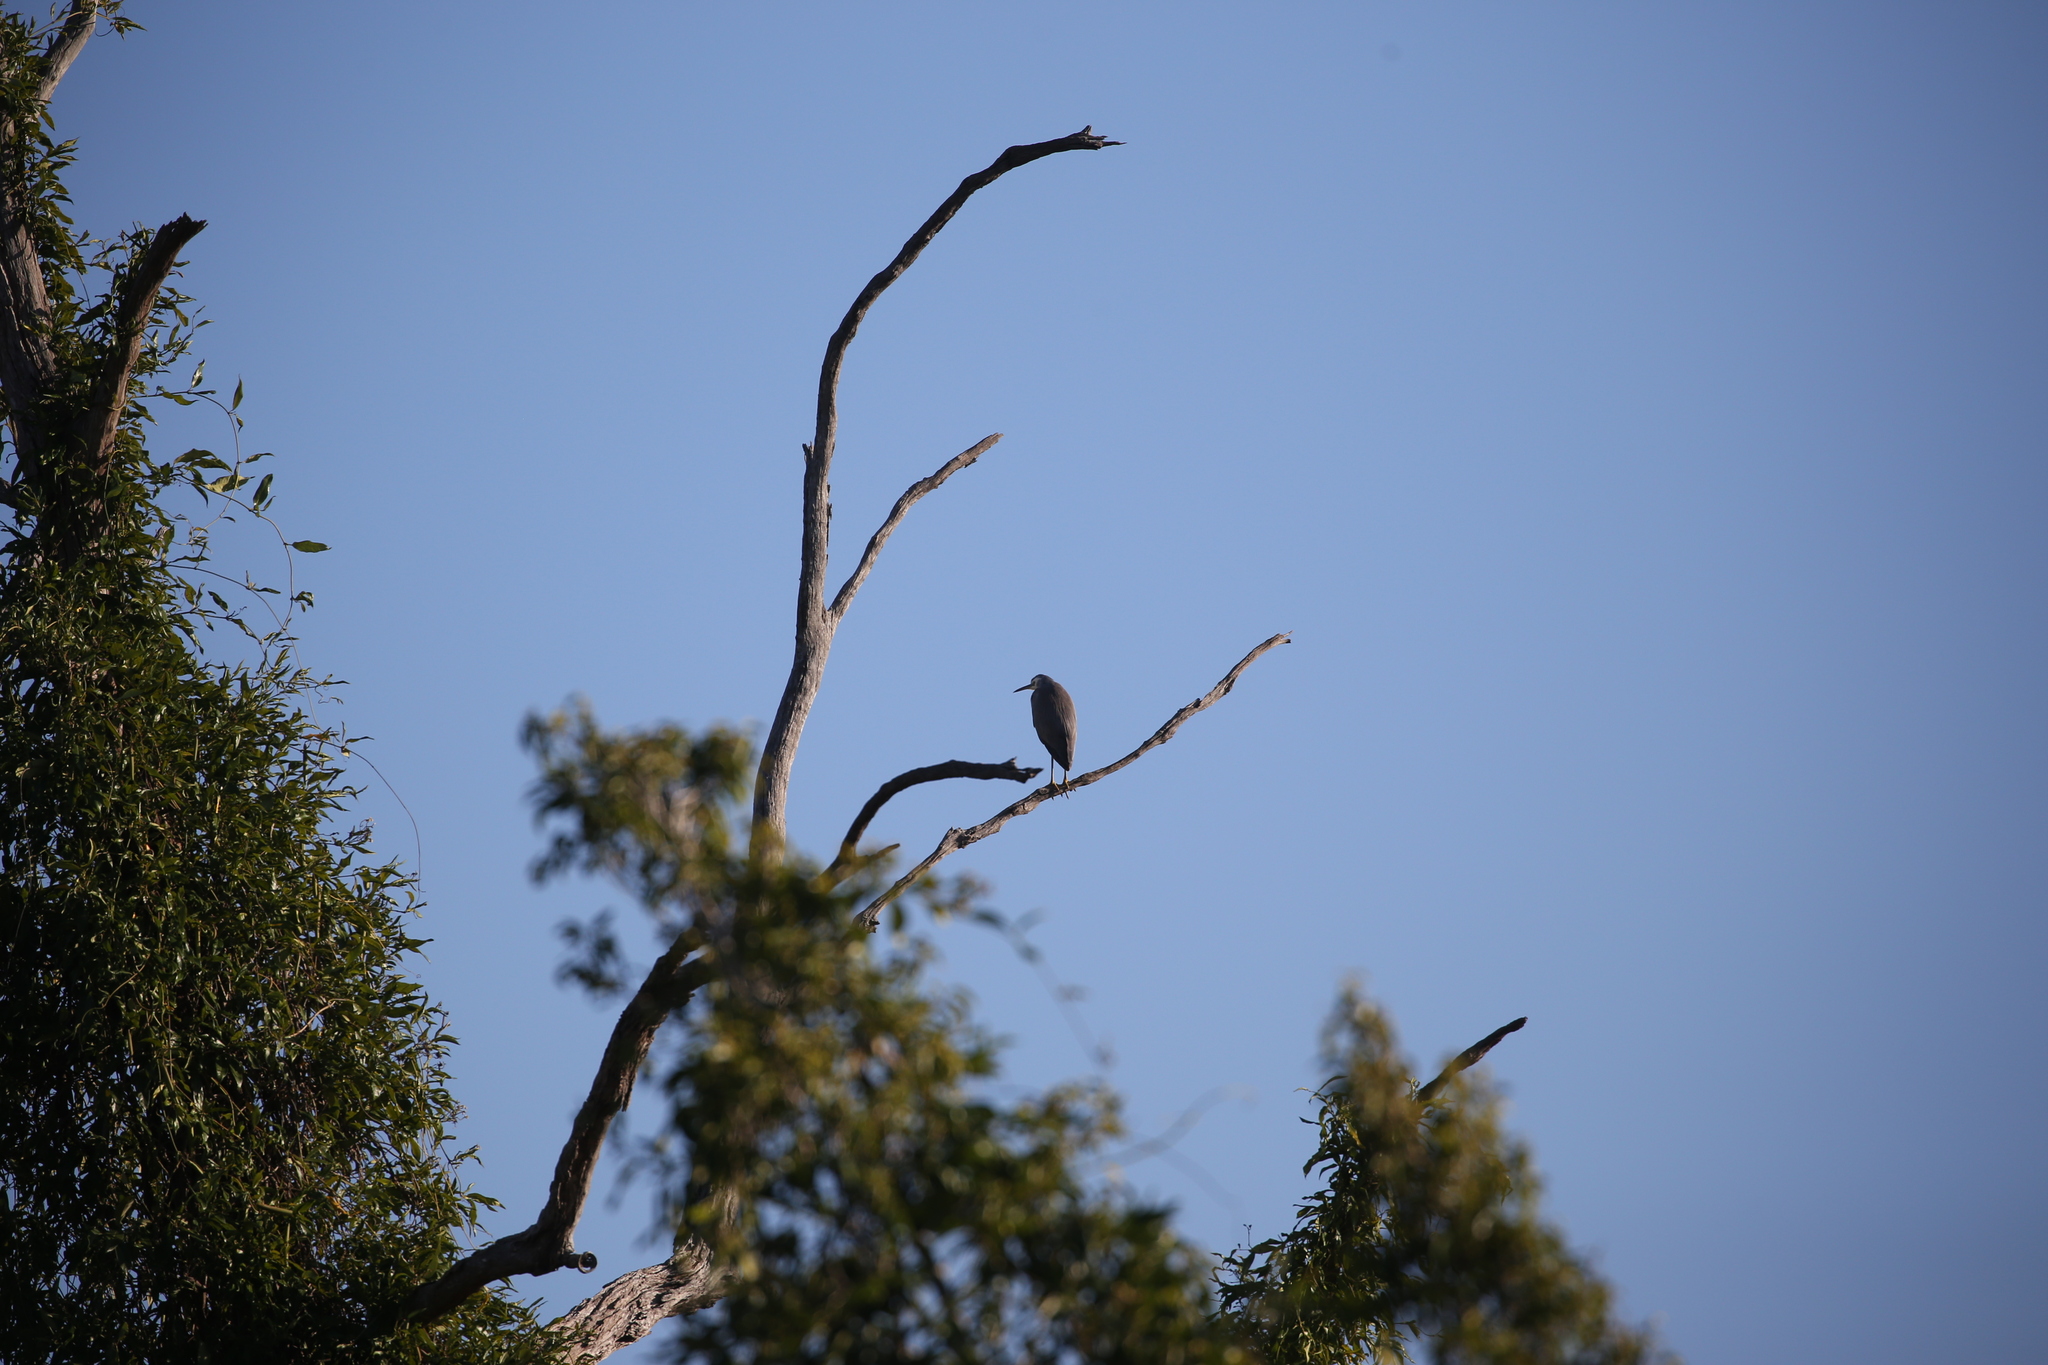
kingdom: Animalia
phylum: Chordata
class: Aves
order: Pelecaniformes
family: Ardeidae
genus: Egretta
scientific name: Egretta novaehollandiae
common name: White-faced heron
